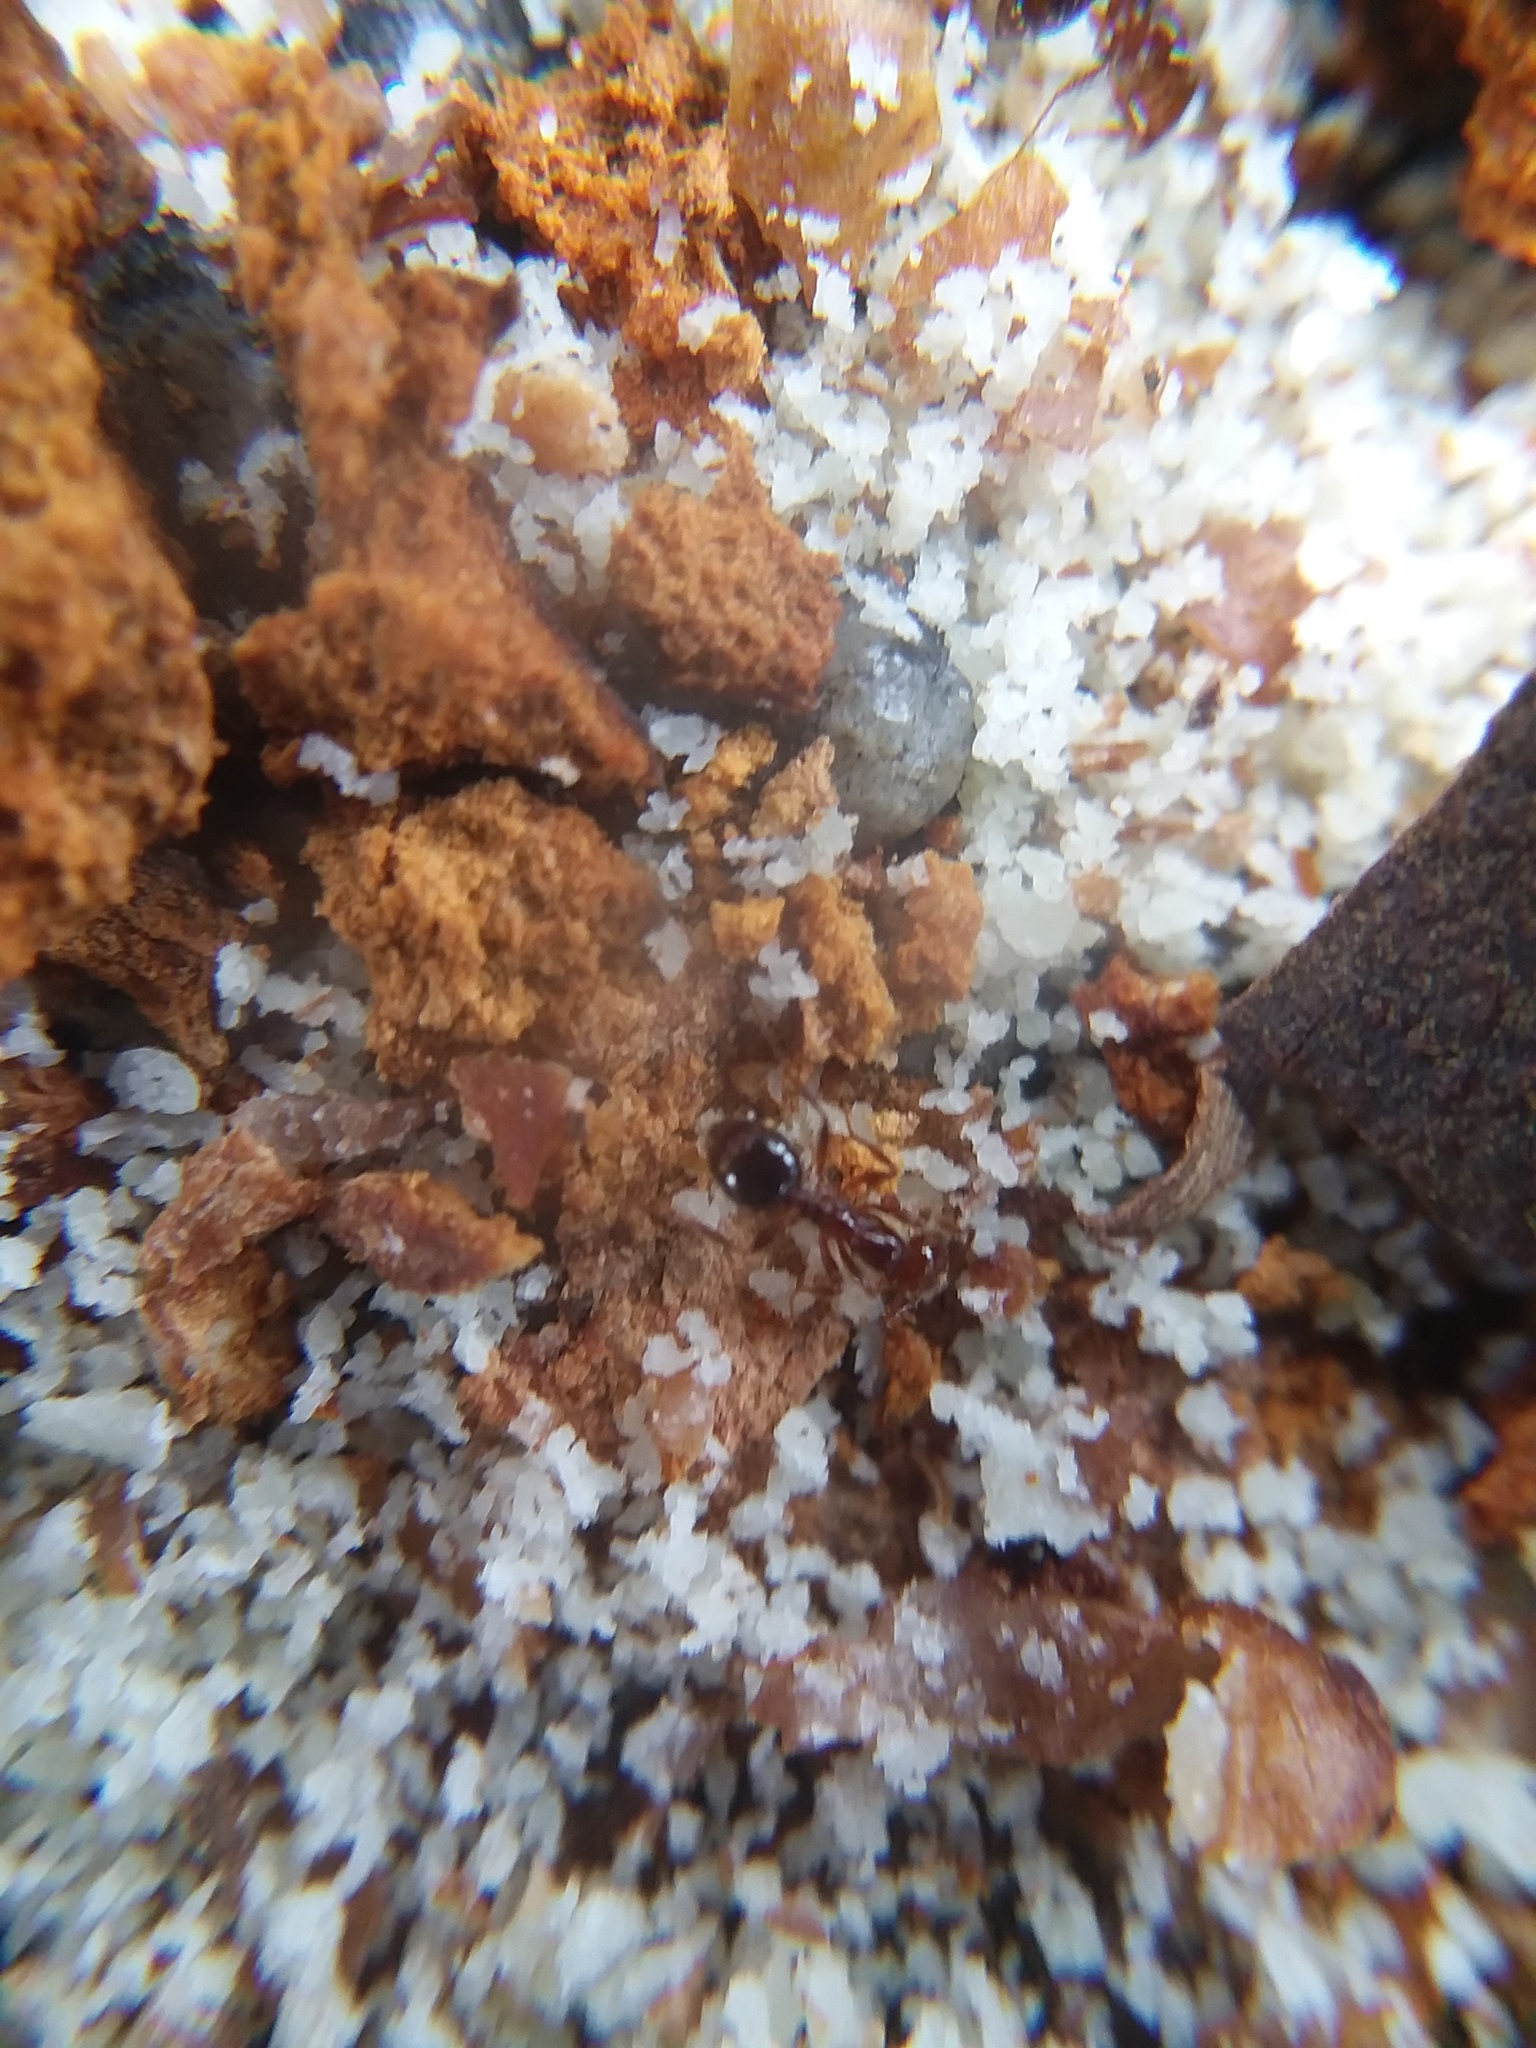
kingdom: Animalia
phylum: Arthropoda
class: Insecta
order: Hymenoptera
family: Formicidae
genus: Solenopsis
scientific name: Solenopsis invicta
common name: Red imported fire ant
